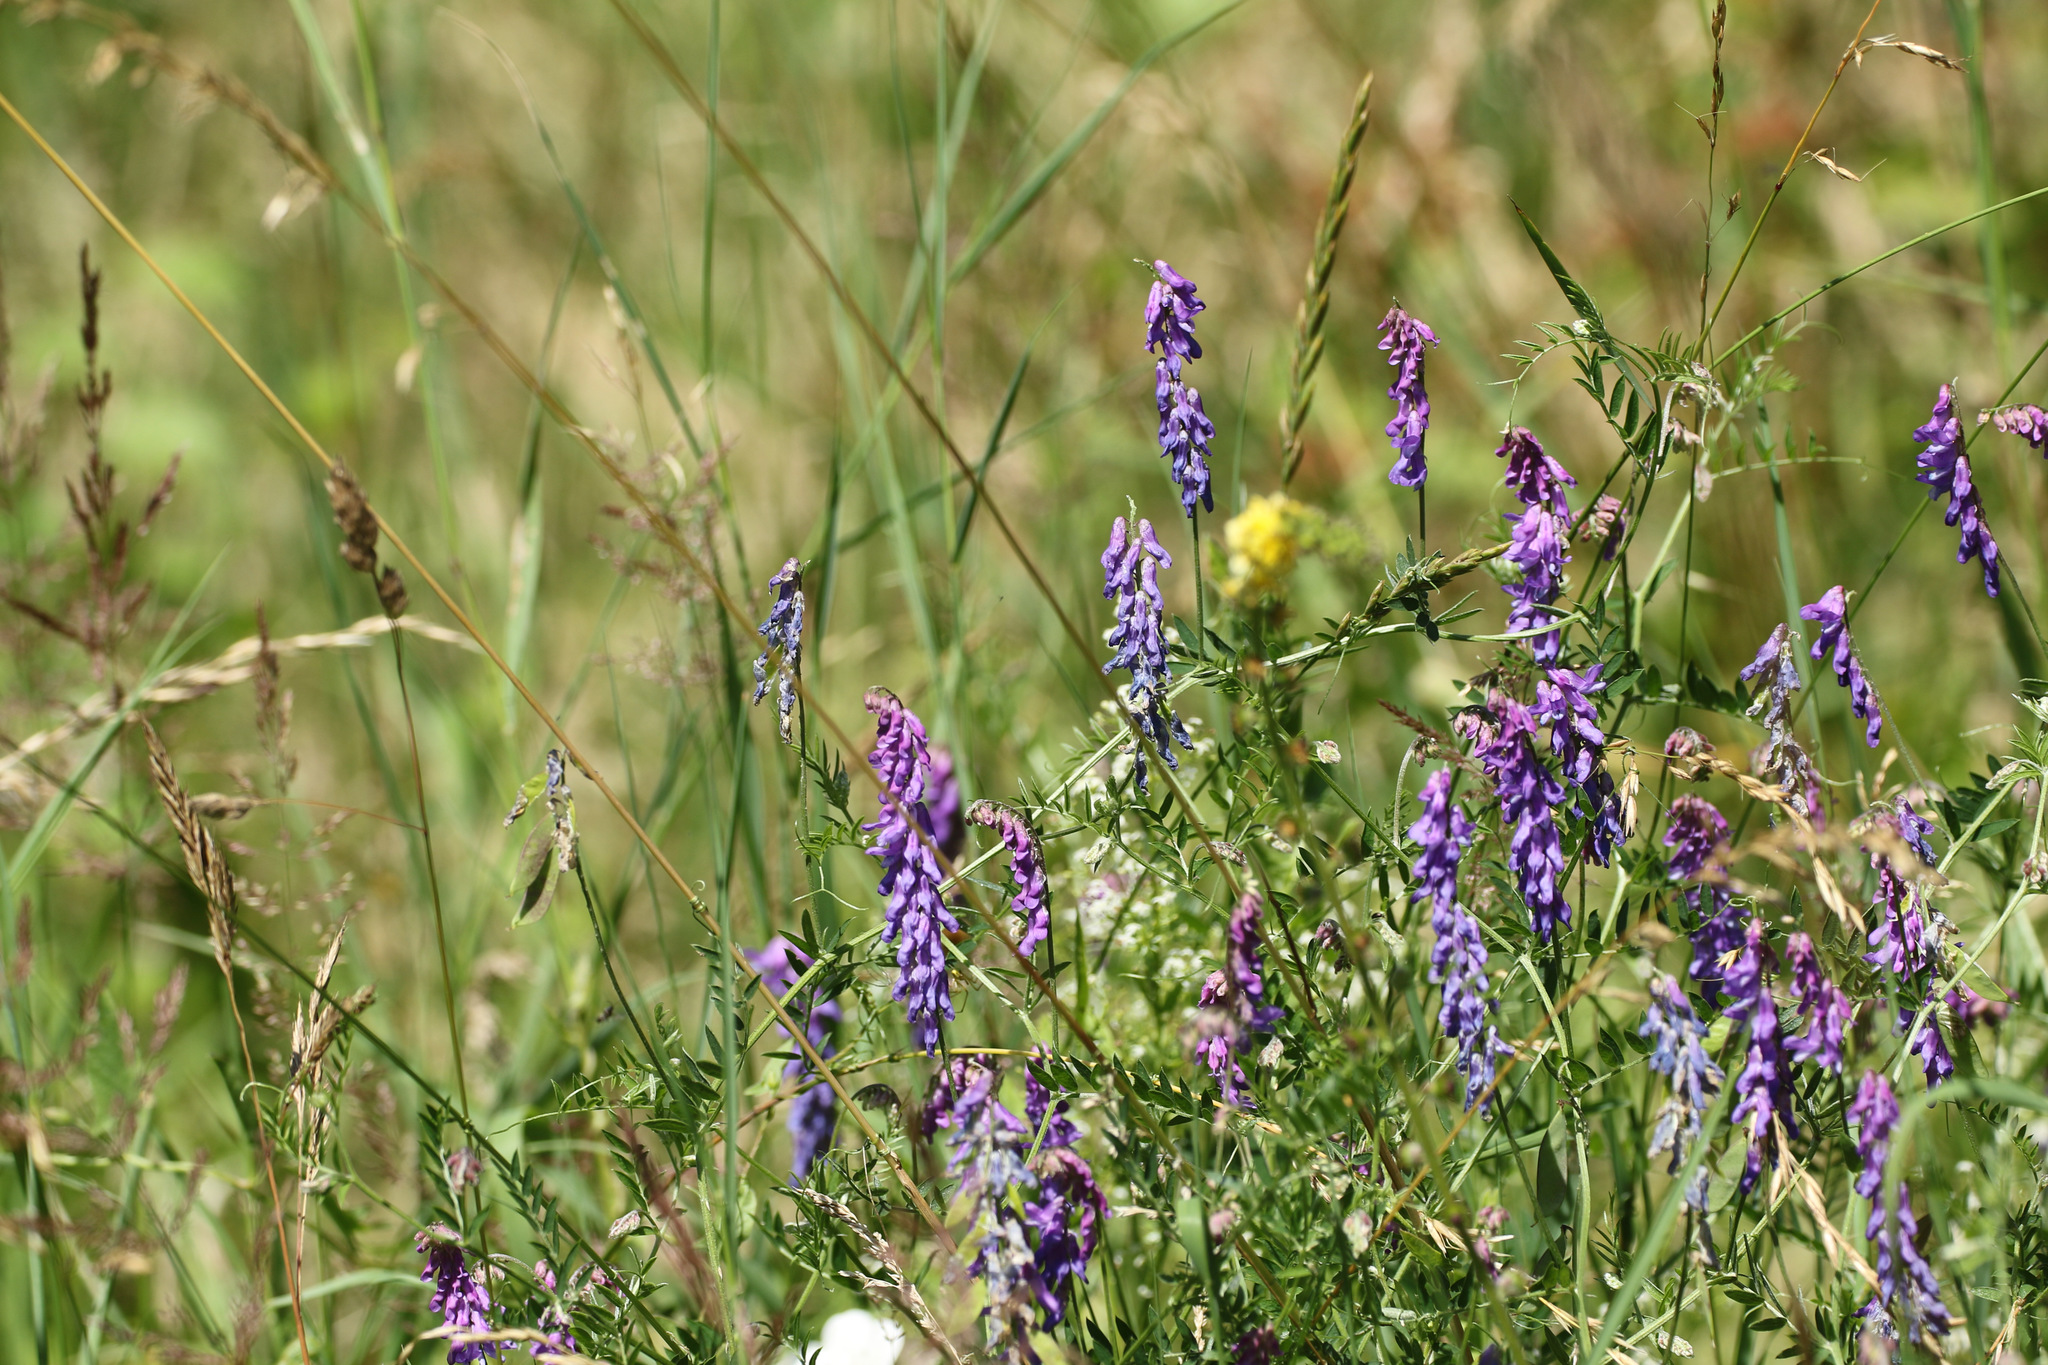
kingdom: Plantae
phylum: Tracheophyta
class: Magnoliopsida
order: Fabales
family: Fabaceae
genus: Vicia
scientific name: Vicia cracca
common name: Bird vetch
